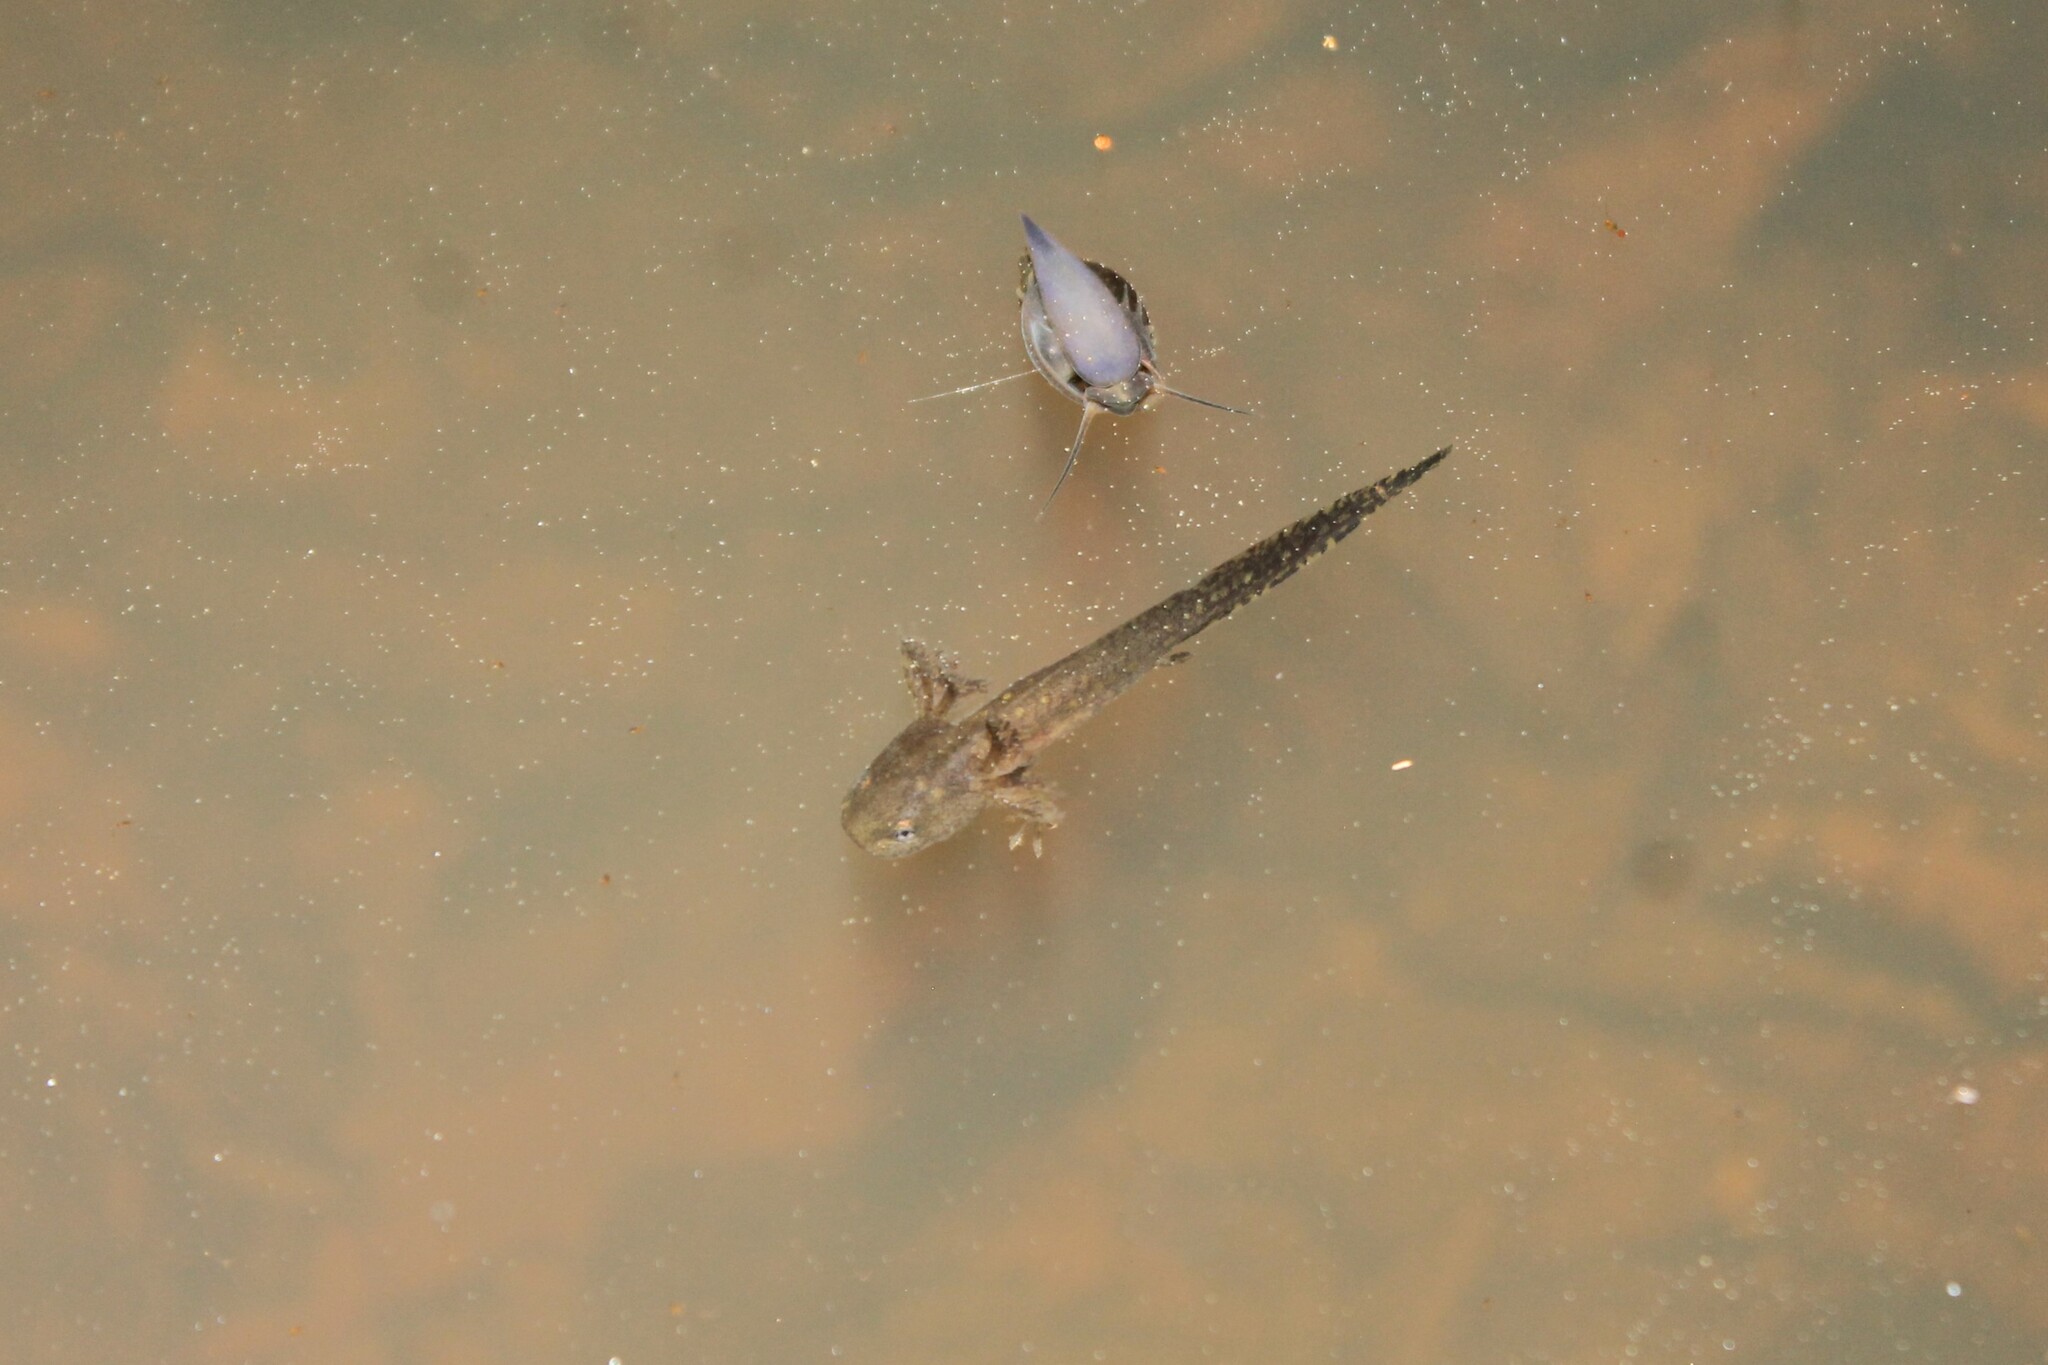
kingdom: Animalia
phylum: Chordata
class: Amphibia
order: Caudata
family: Ambystomatidae
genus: Ambystoma
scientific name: Ambystoma opacum
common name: Marbled salamander
